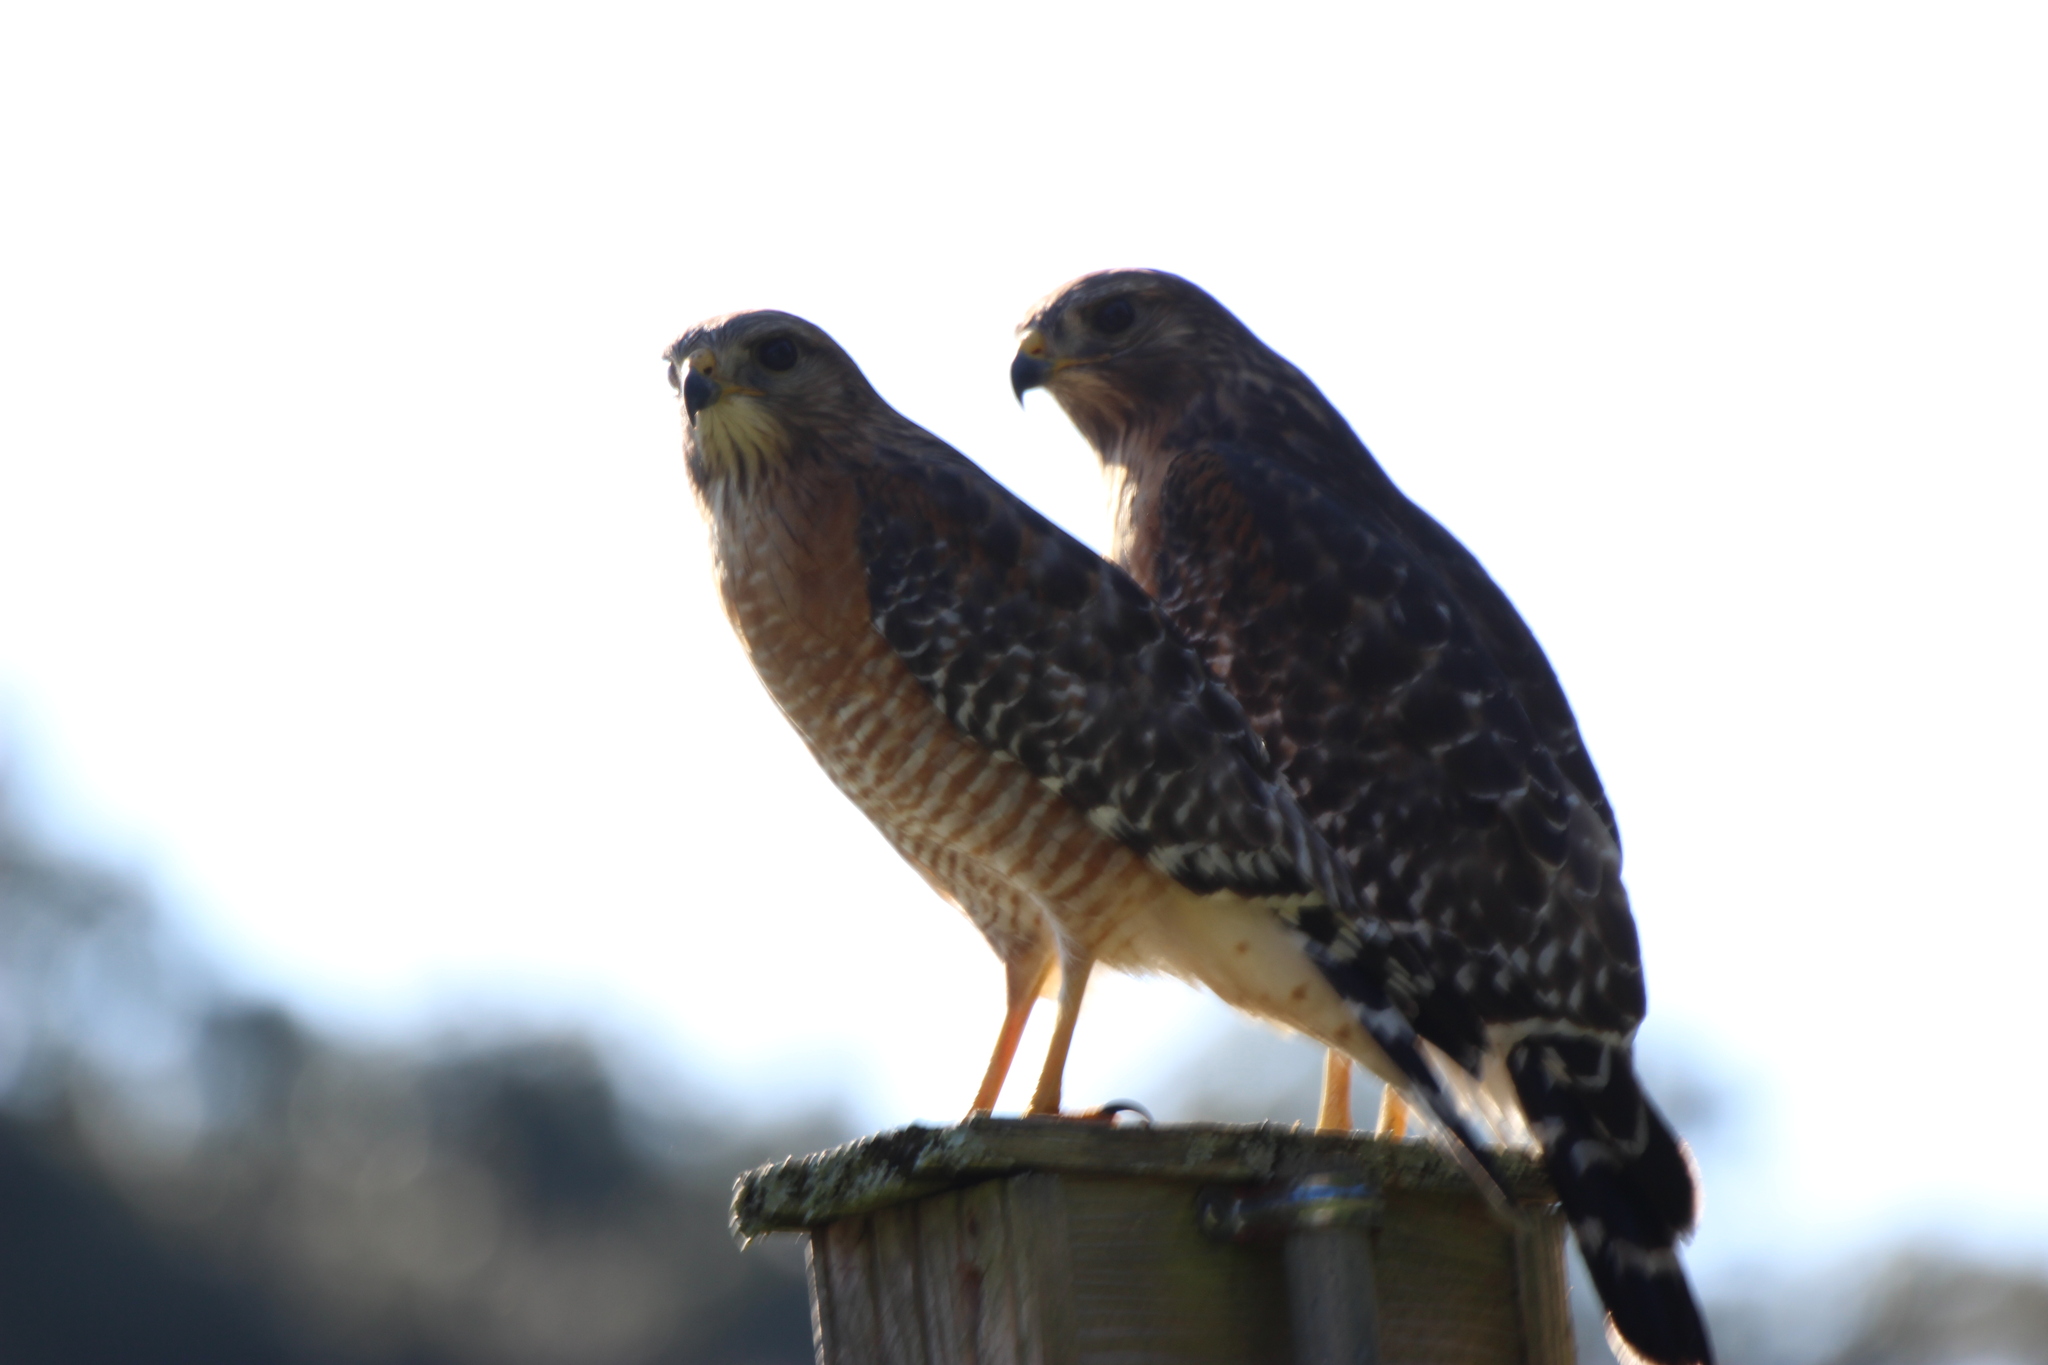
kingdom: Animalia
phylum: Chordata
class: Aves
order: Accipitriformes
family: Accipitridae
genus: Buteo
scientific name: Buteo lineatus
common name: Red-shouldered hawk
